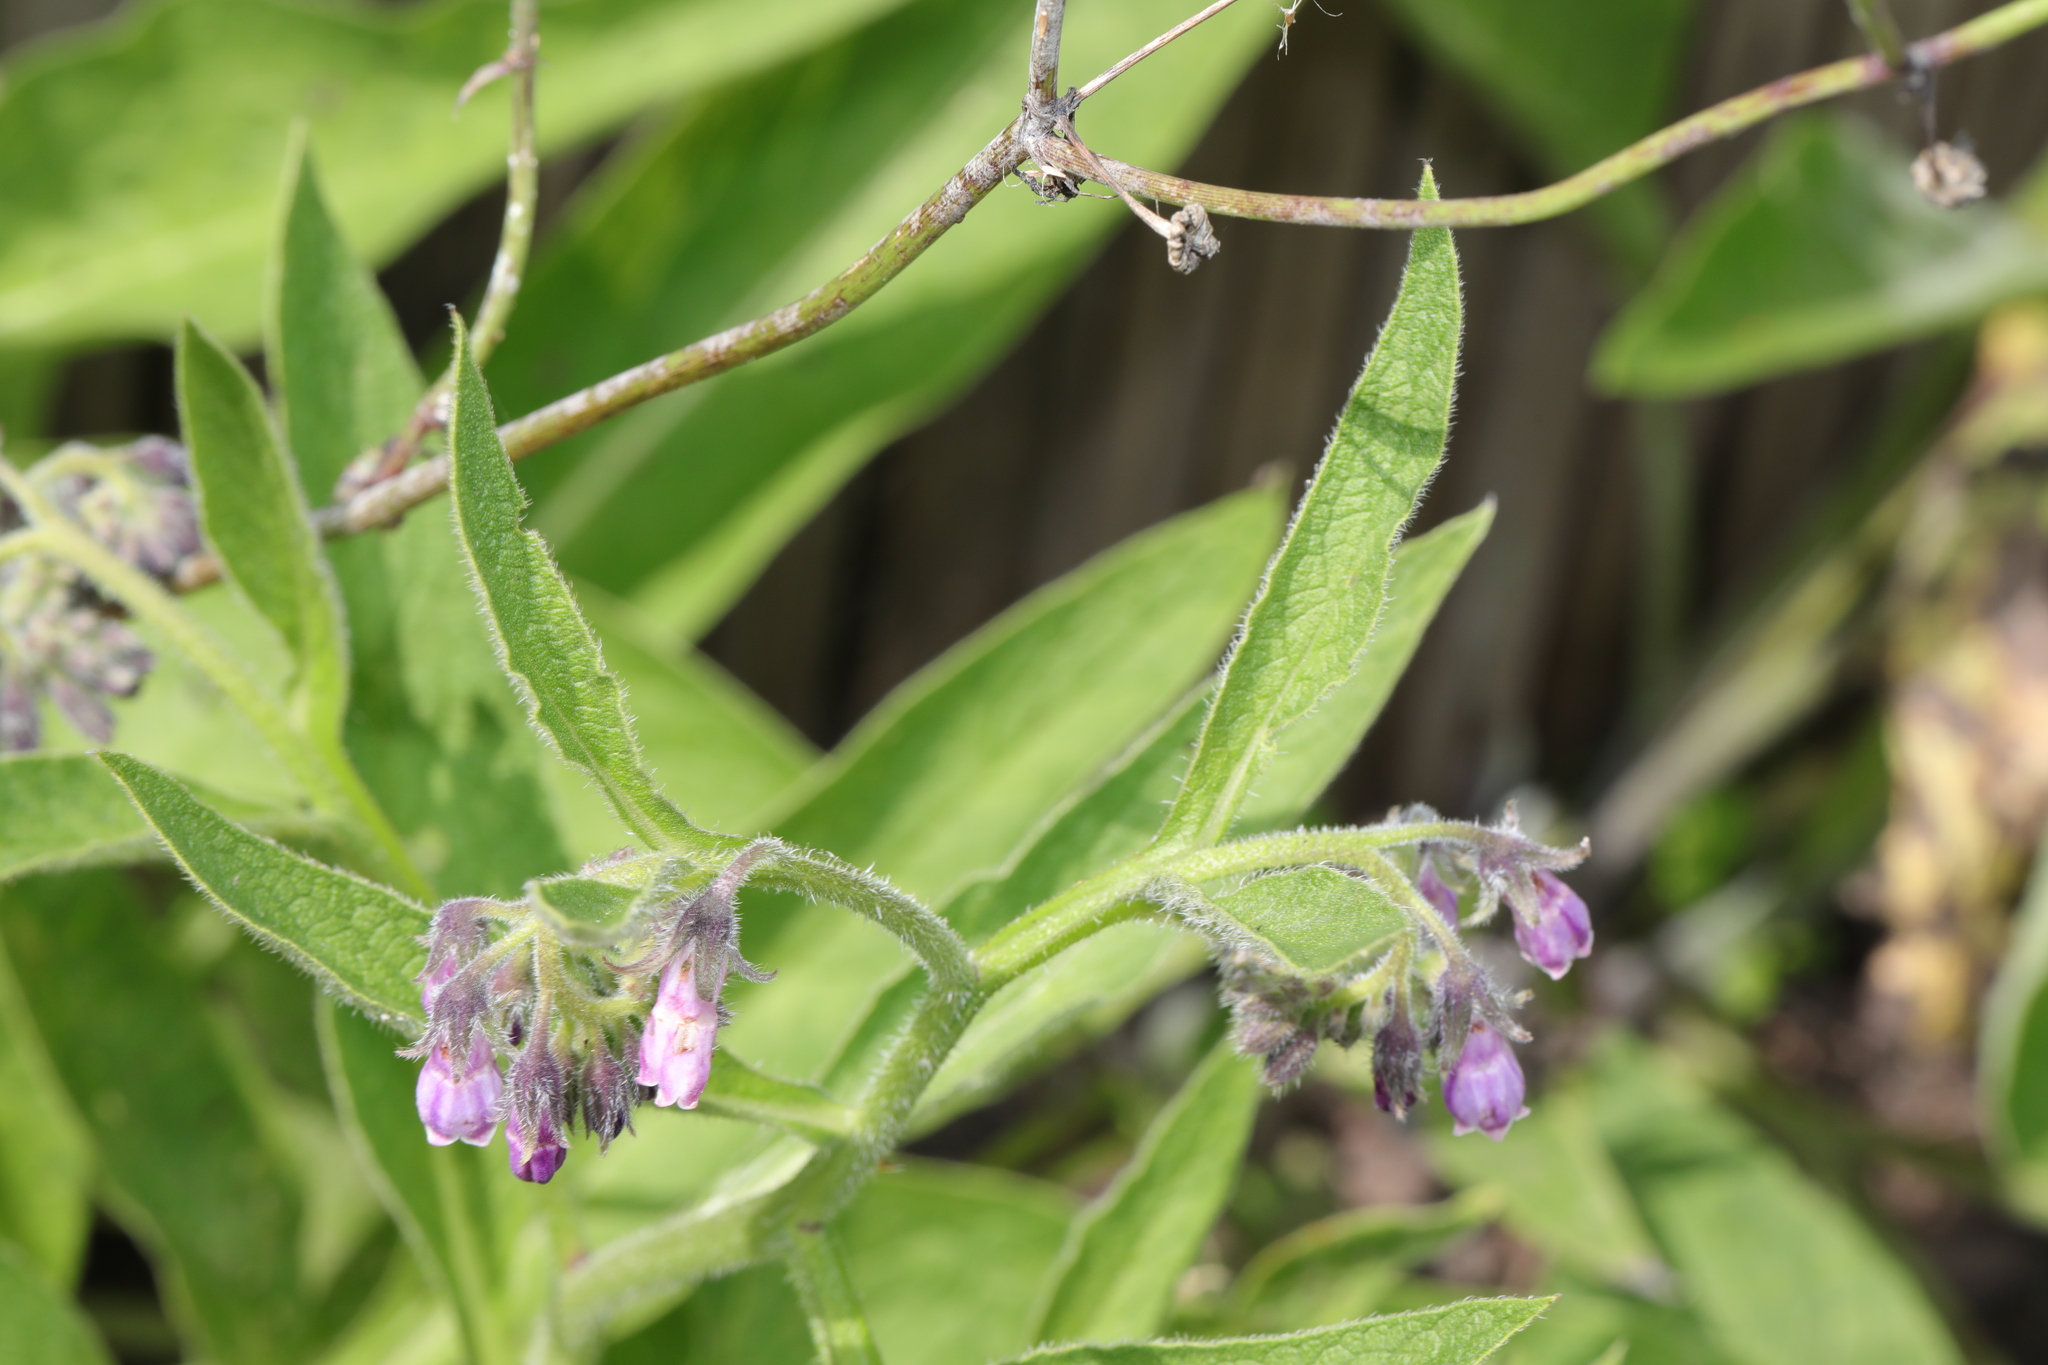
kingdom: Plantae
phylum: Tracheophyta
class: Magnoliopsida
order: Boraginales
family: Boraginaceae
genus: Symphytum
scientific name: Symphytum uplandicum
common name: Russian comfrey
